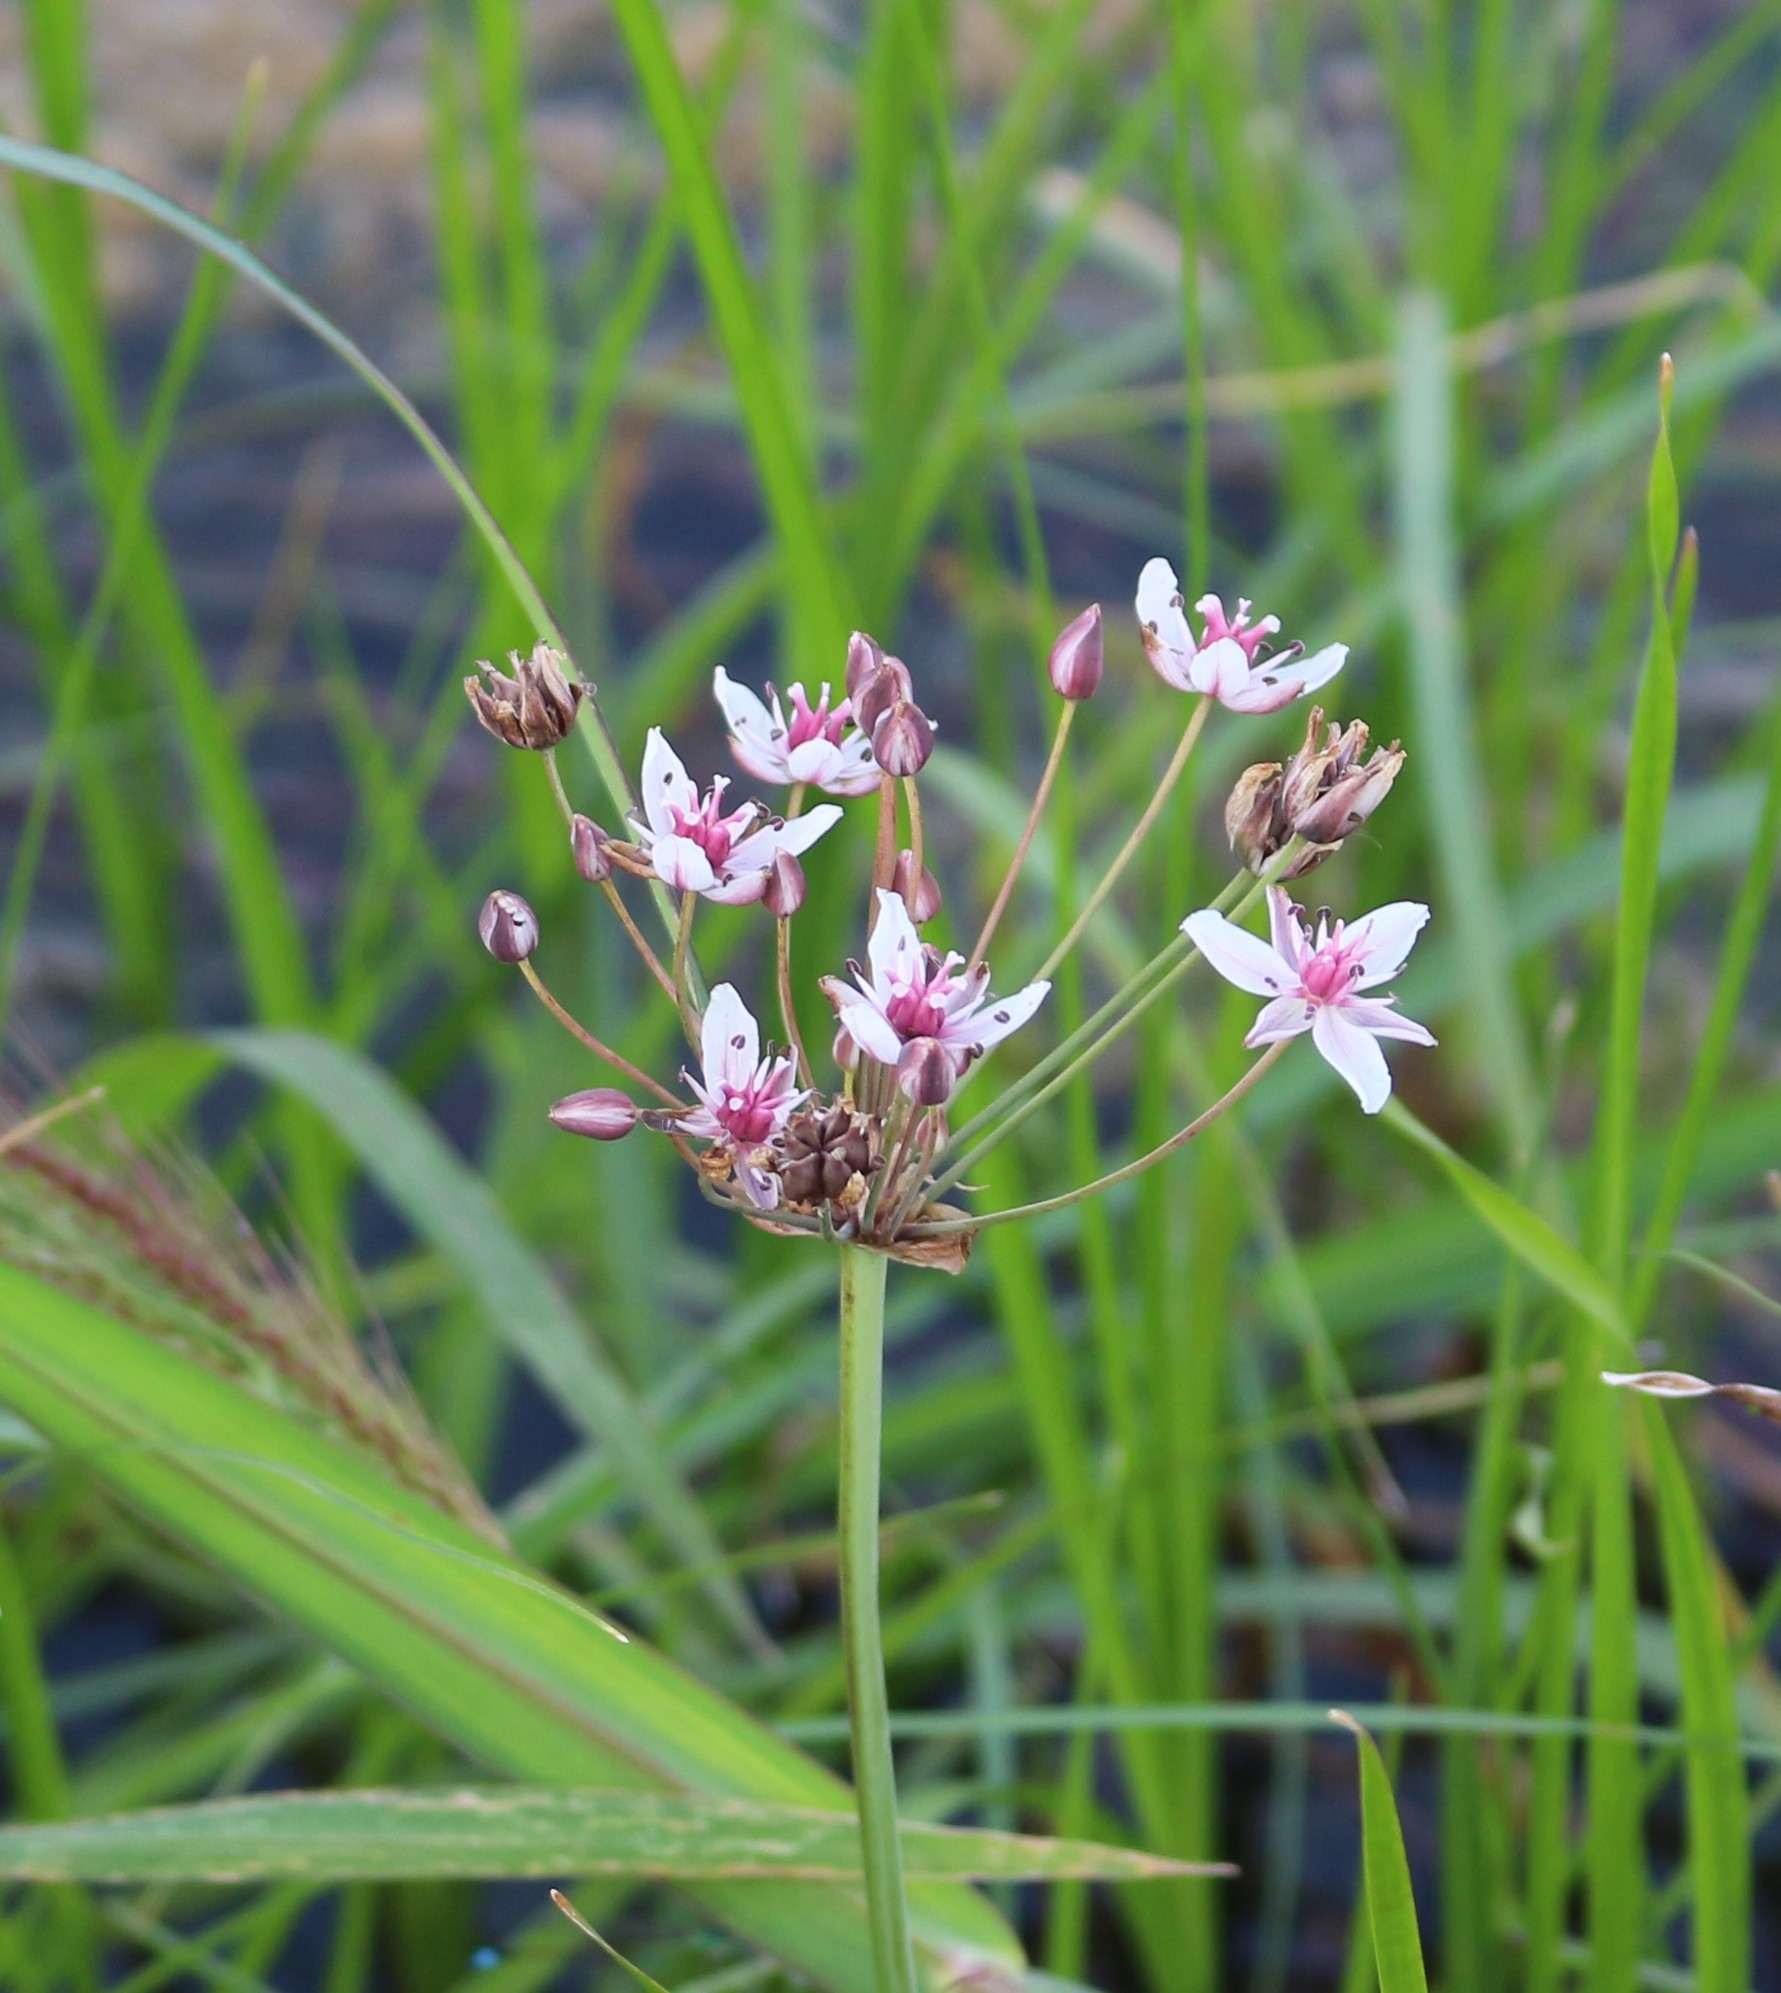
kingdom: Plantae
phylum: Tracheophyta
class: Liliopsida
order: Alismatales
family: Butomaceae
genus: Butomus
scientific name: Butomus umbellatus
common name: Flowering-rush
